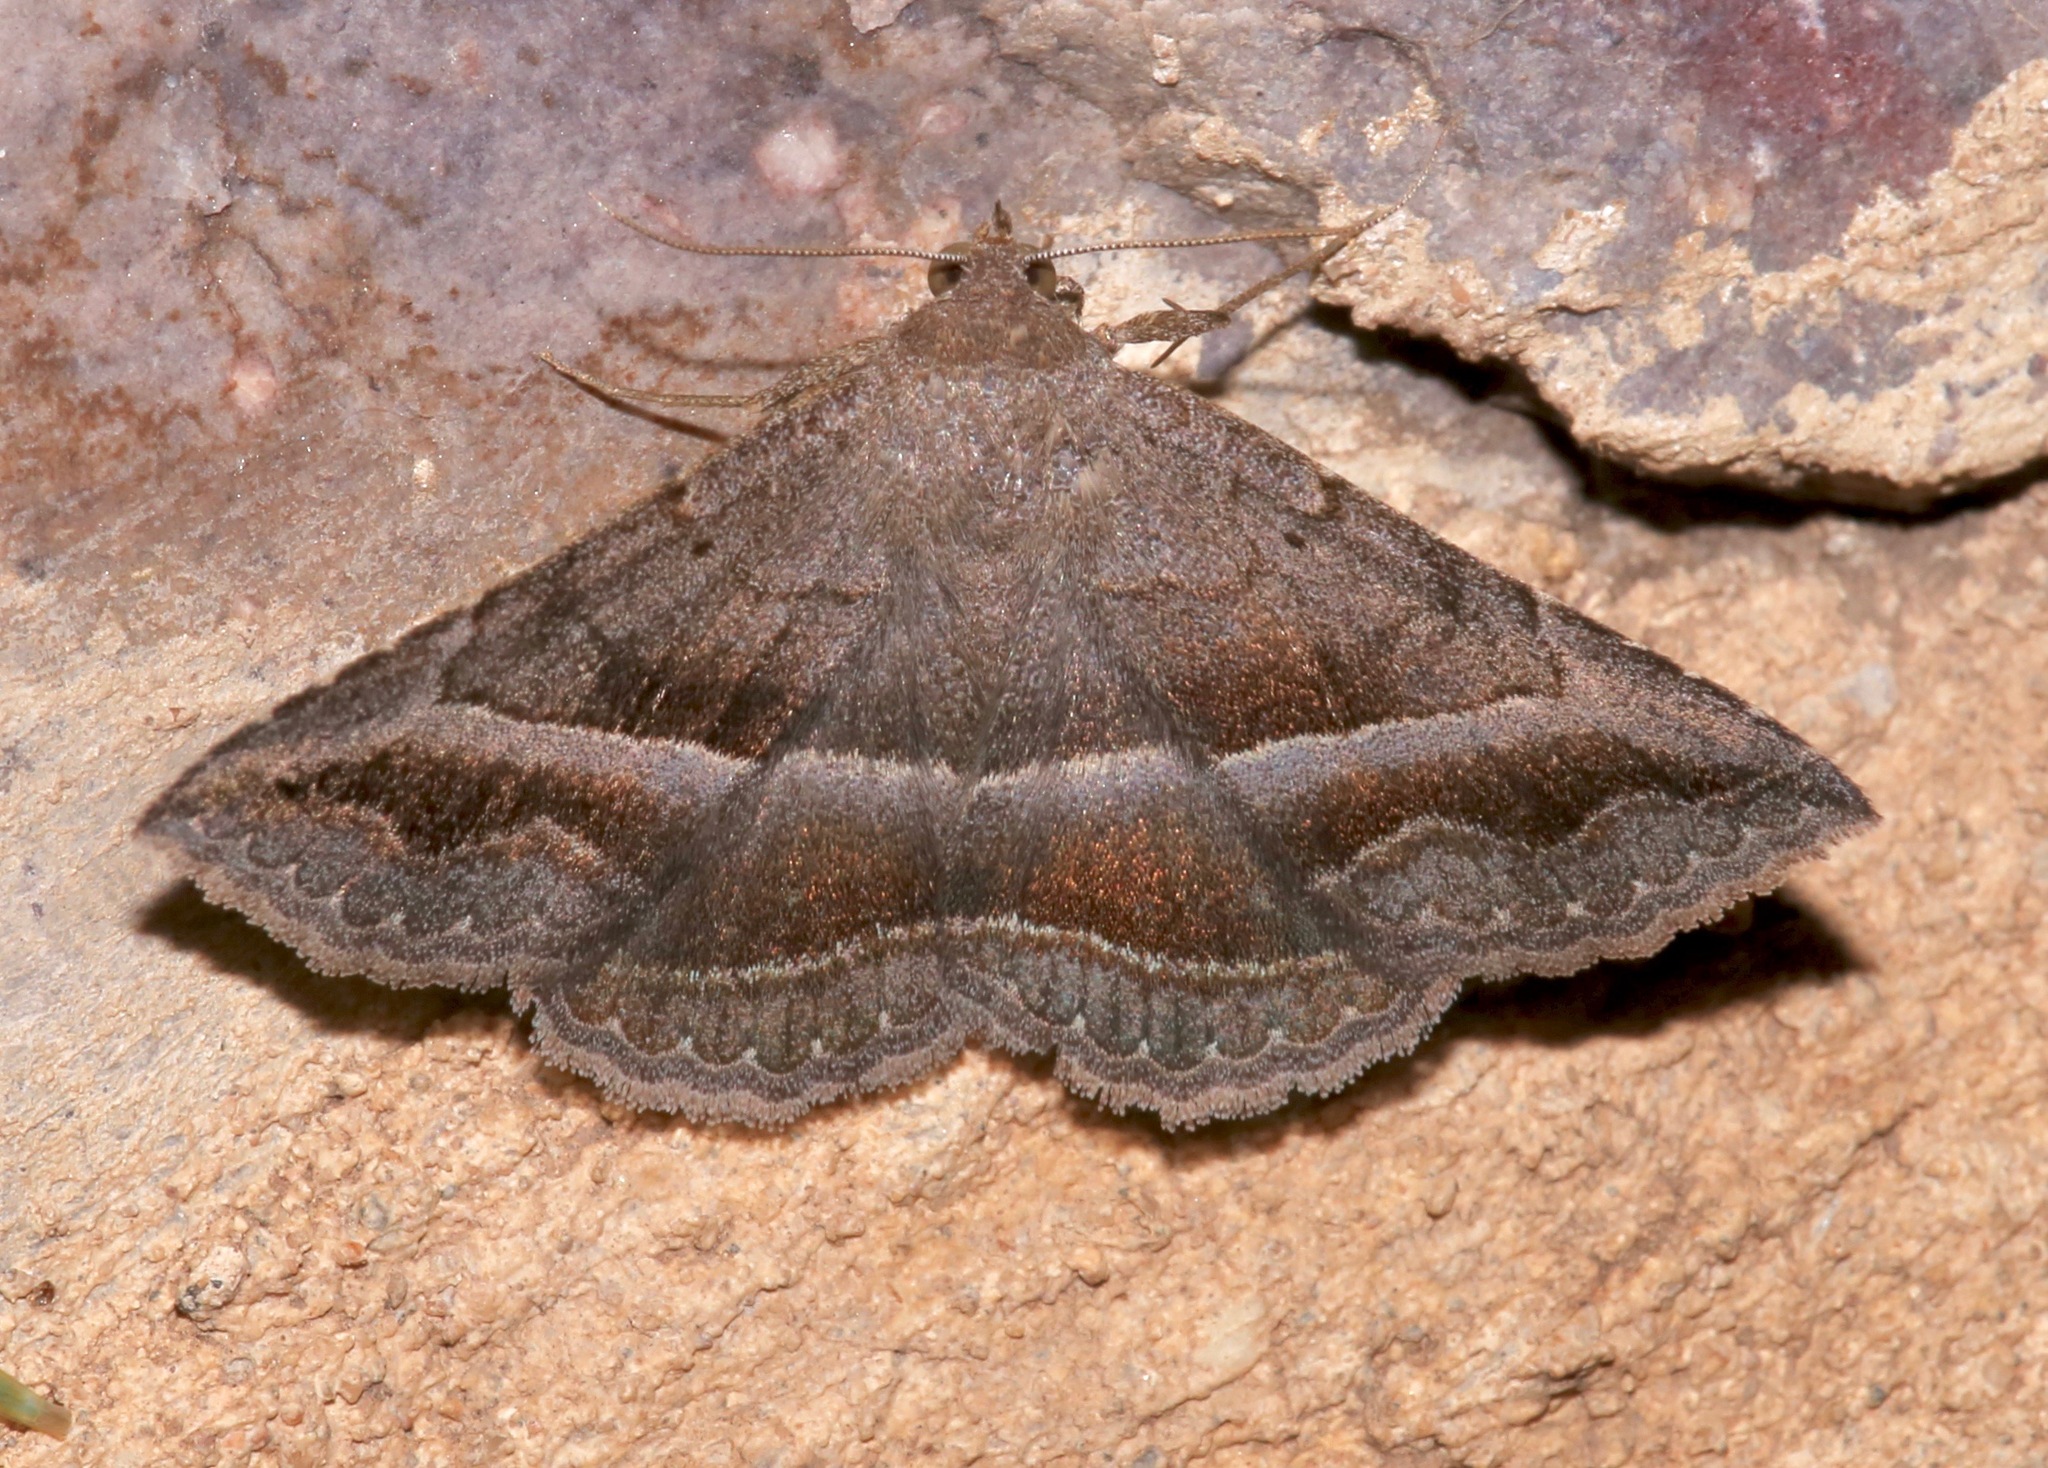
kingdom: Animalia
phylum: Arthropoda
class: Insecta
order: Lepidoptera
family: Erebidae
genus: Lesmone
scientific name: Lesmone griseipennis
